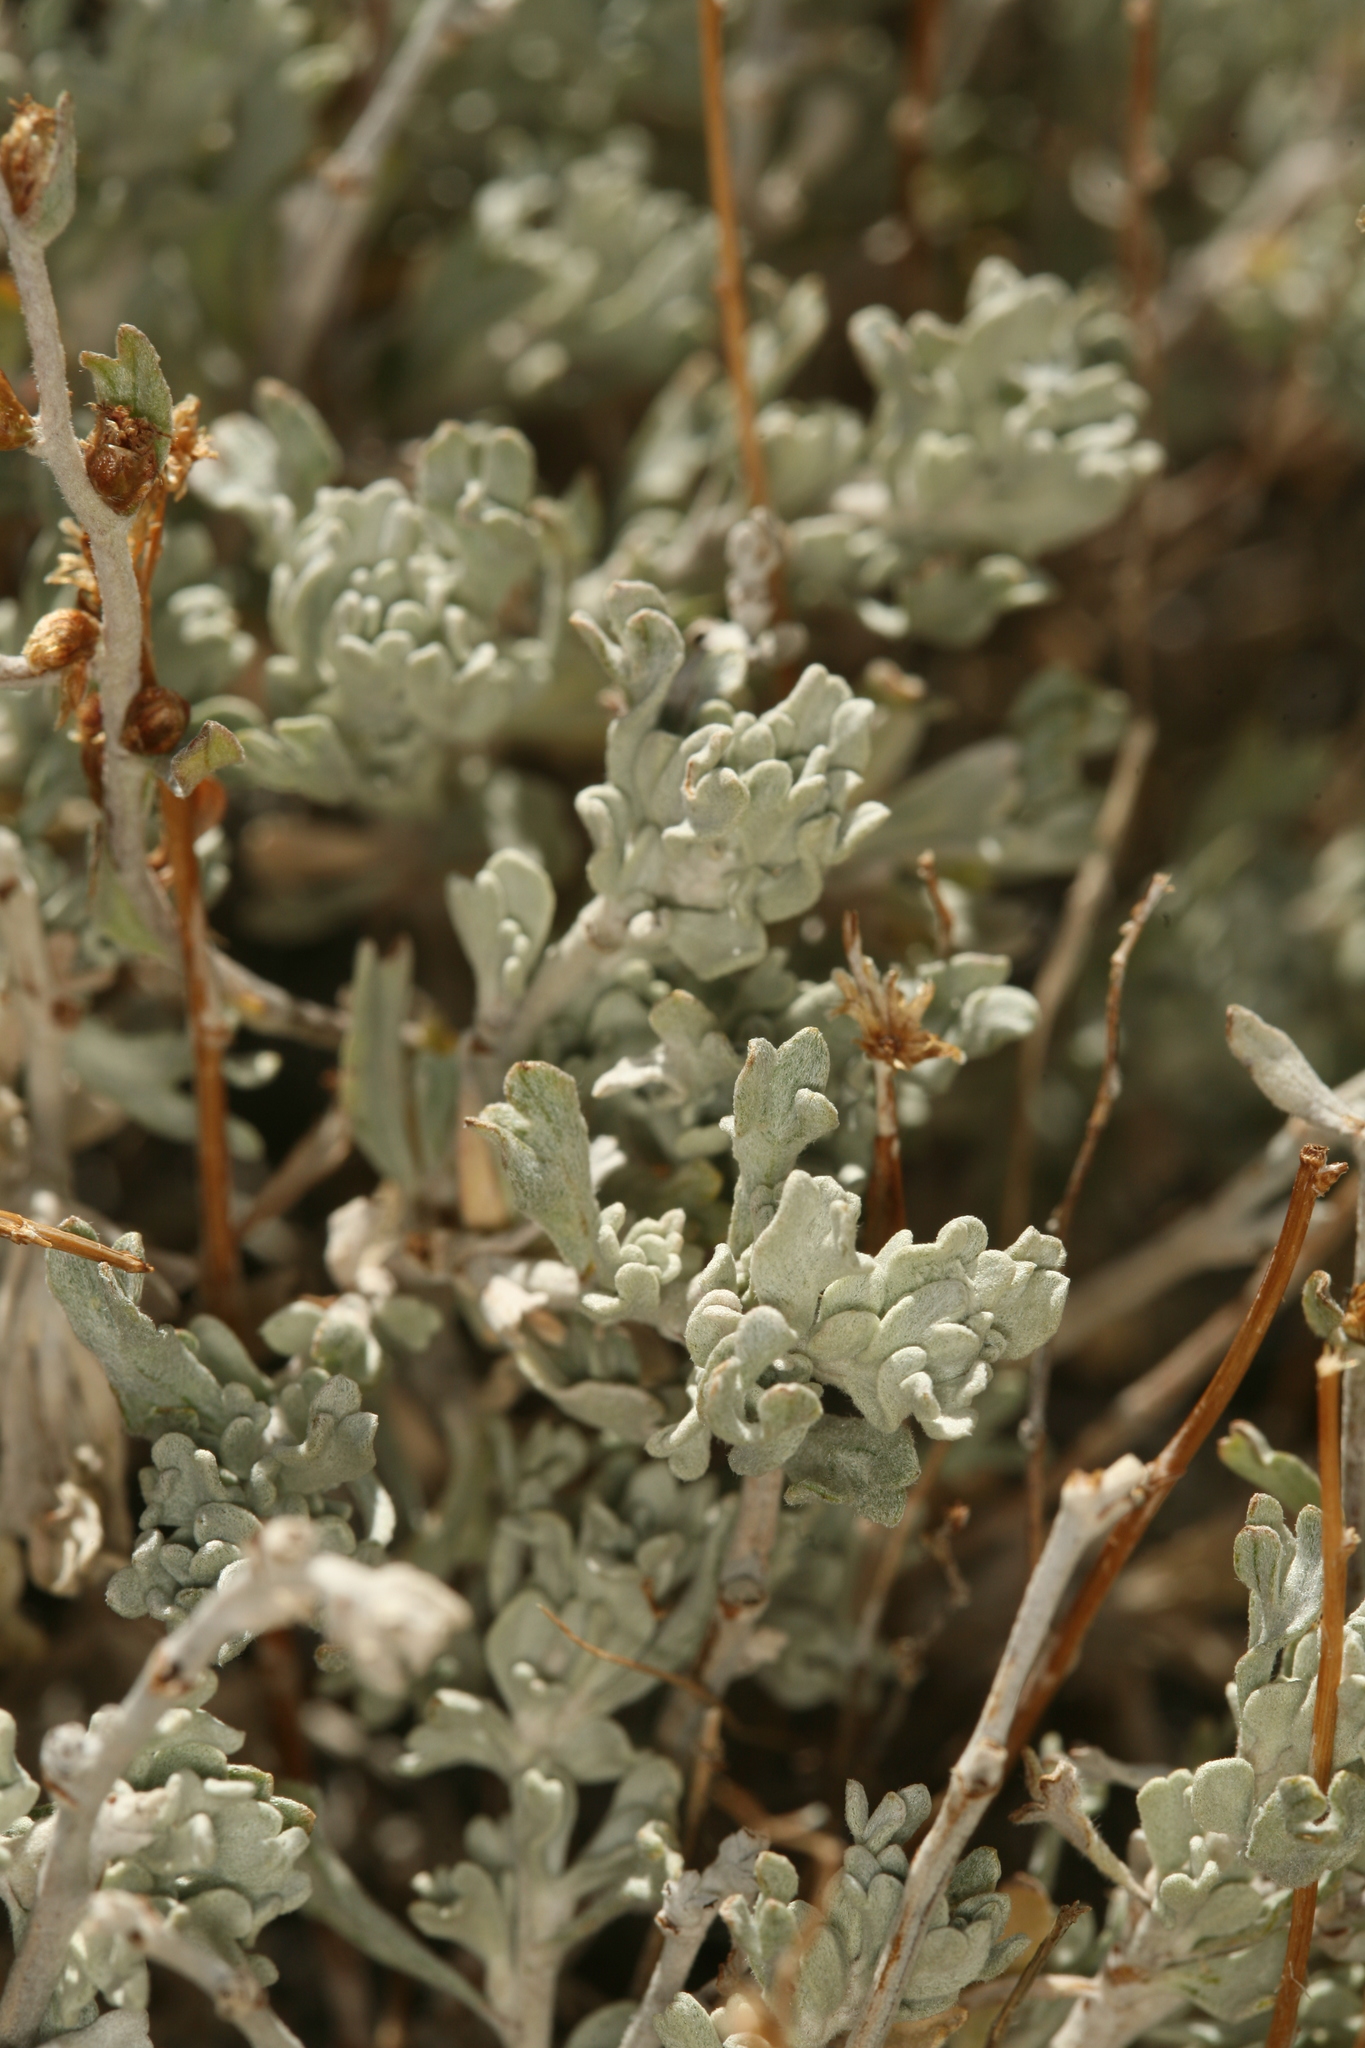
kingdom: Plantae
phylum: Tracheophyta
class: Magnoliopsida
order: Asterales
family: Asteraceae
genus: Artemisia
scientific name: Artemisia rothrockii
